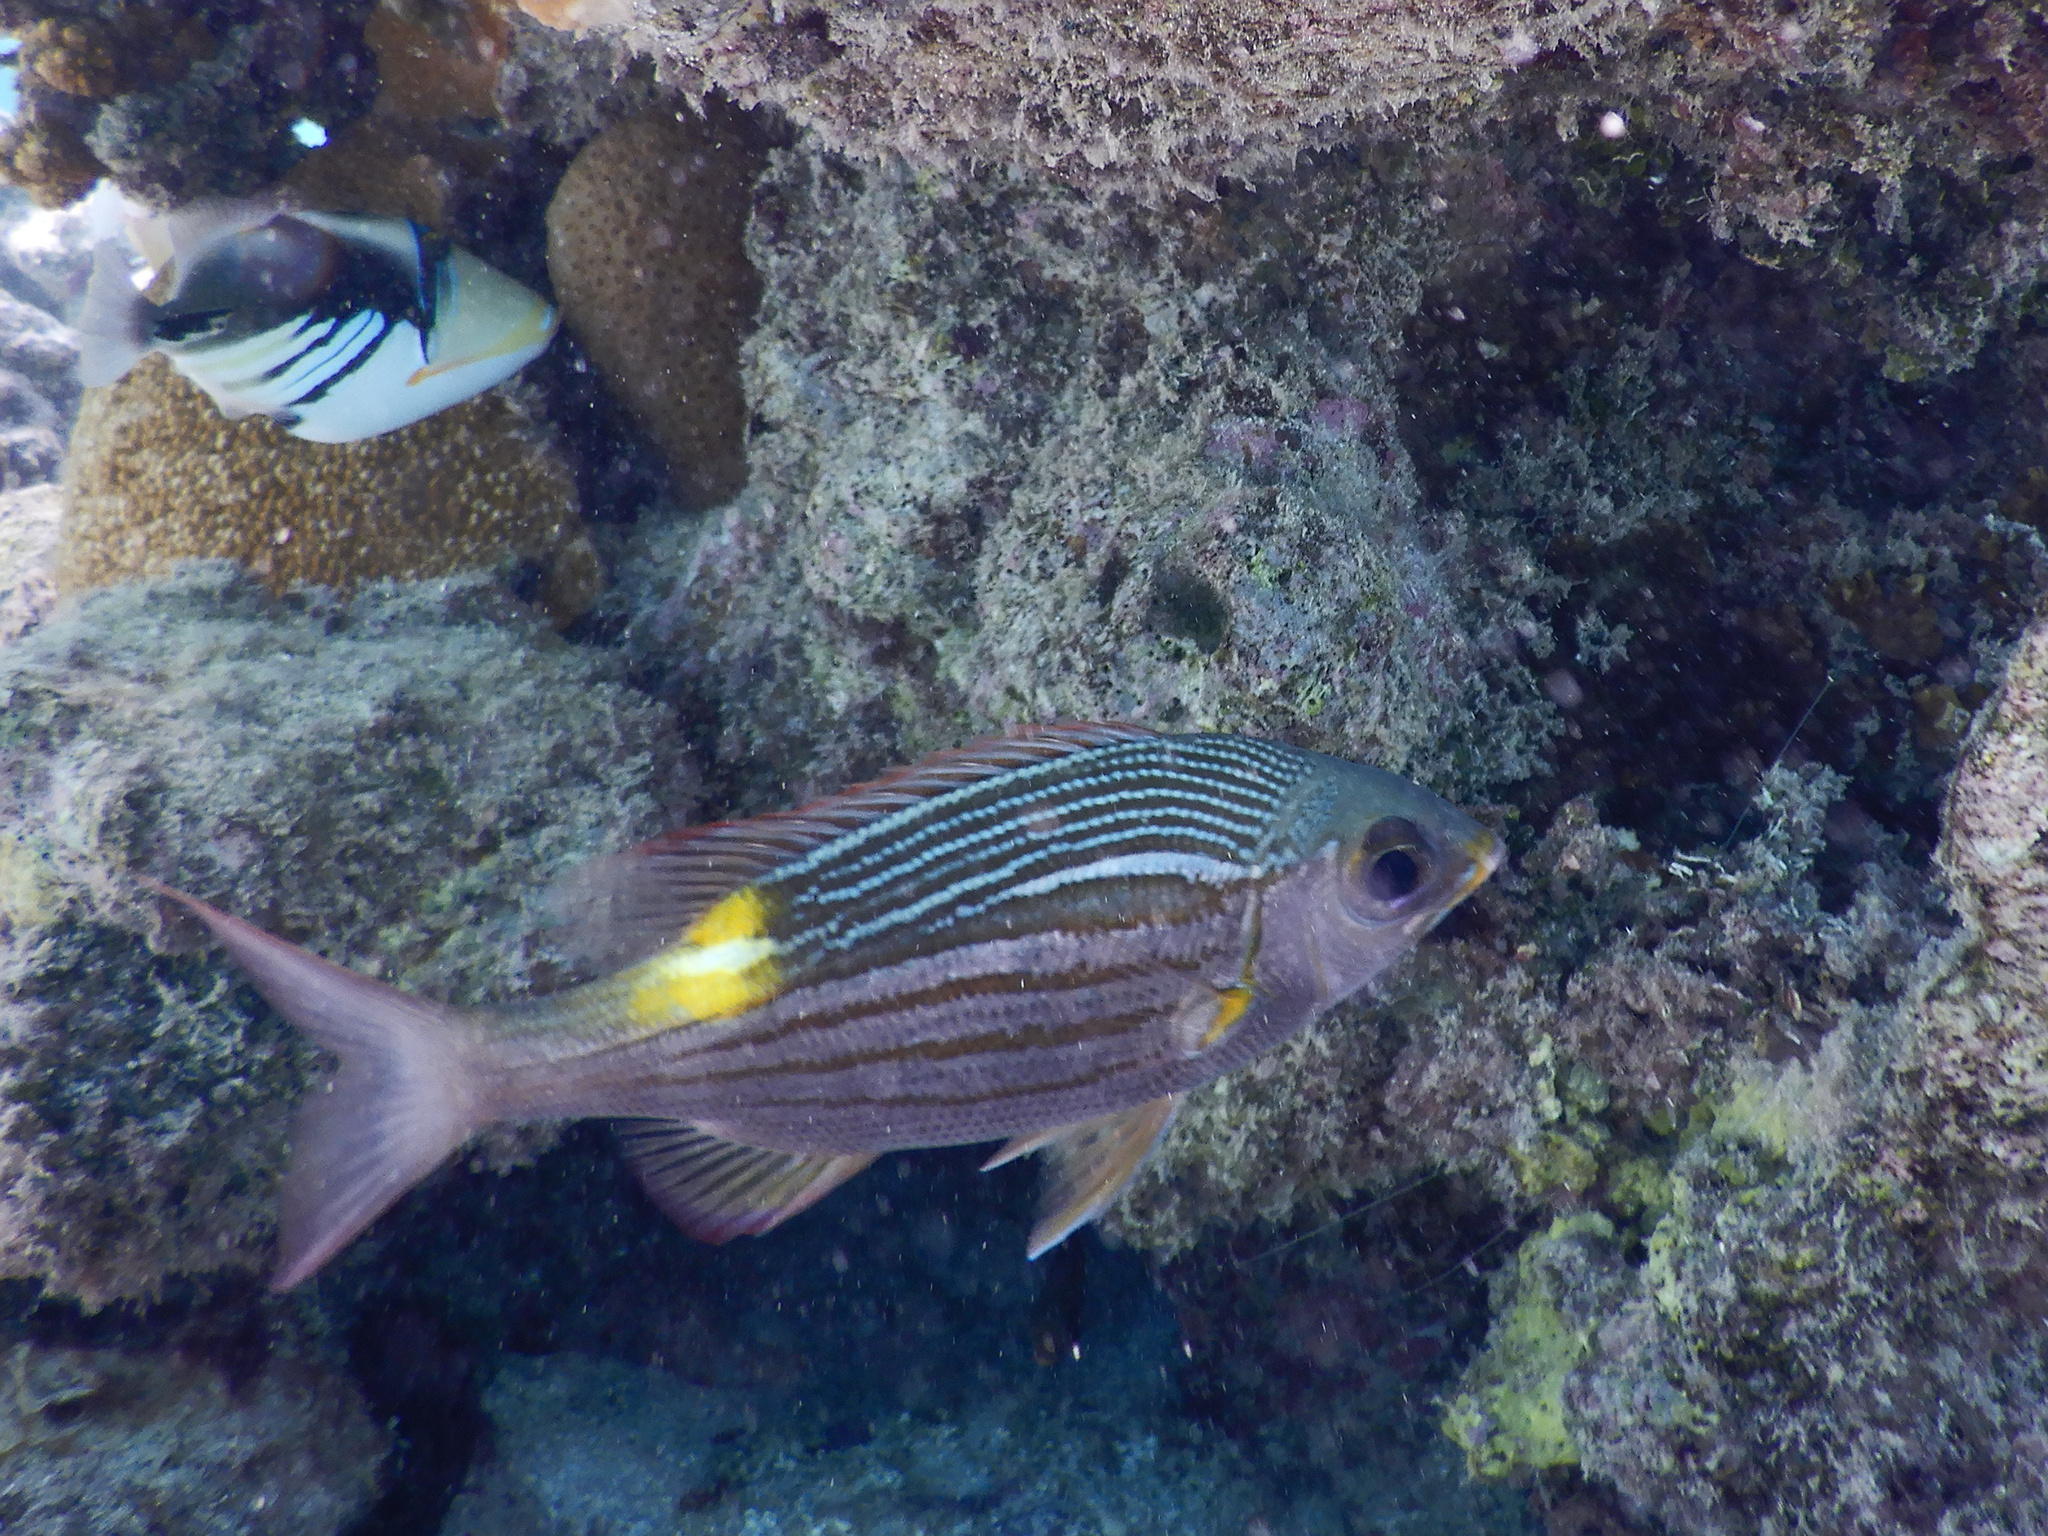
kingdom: Animalia
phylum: Chordata
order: Perciformes
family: Lethrinidae
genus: Gnathodentex
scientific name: Gnathodentex aureolineatus
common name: Gold-lined sea bream
